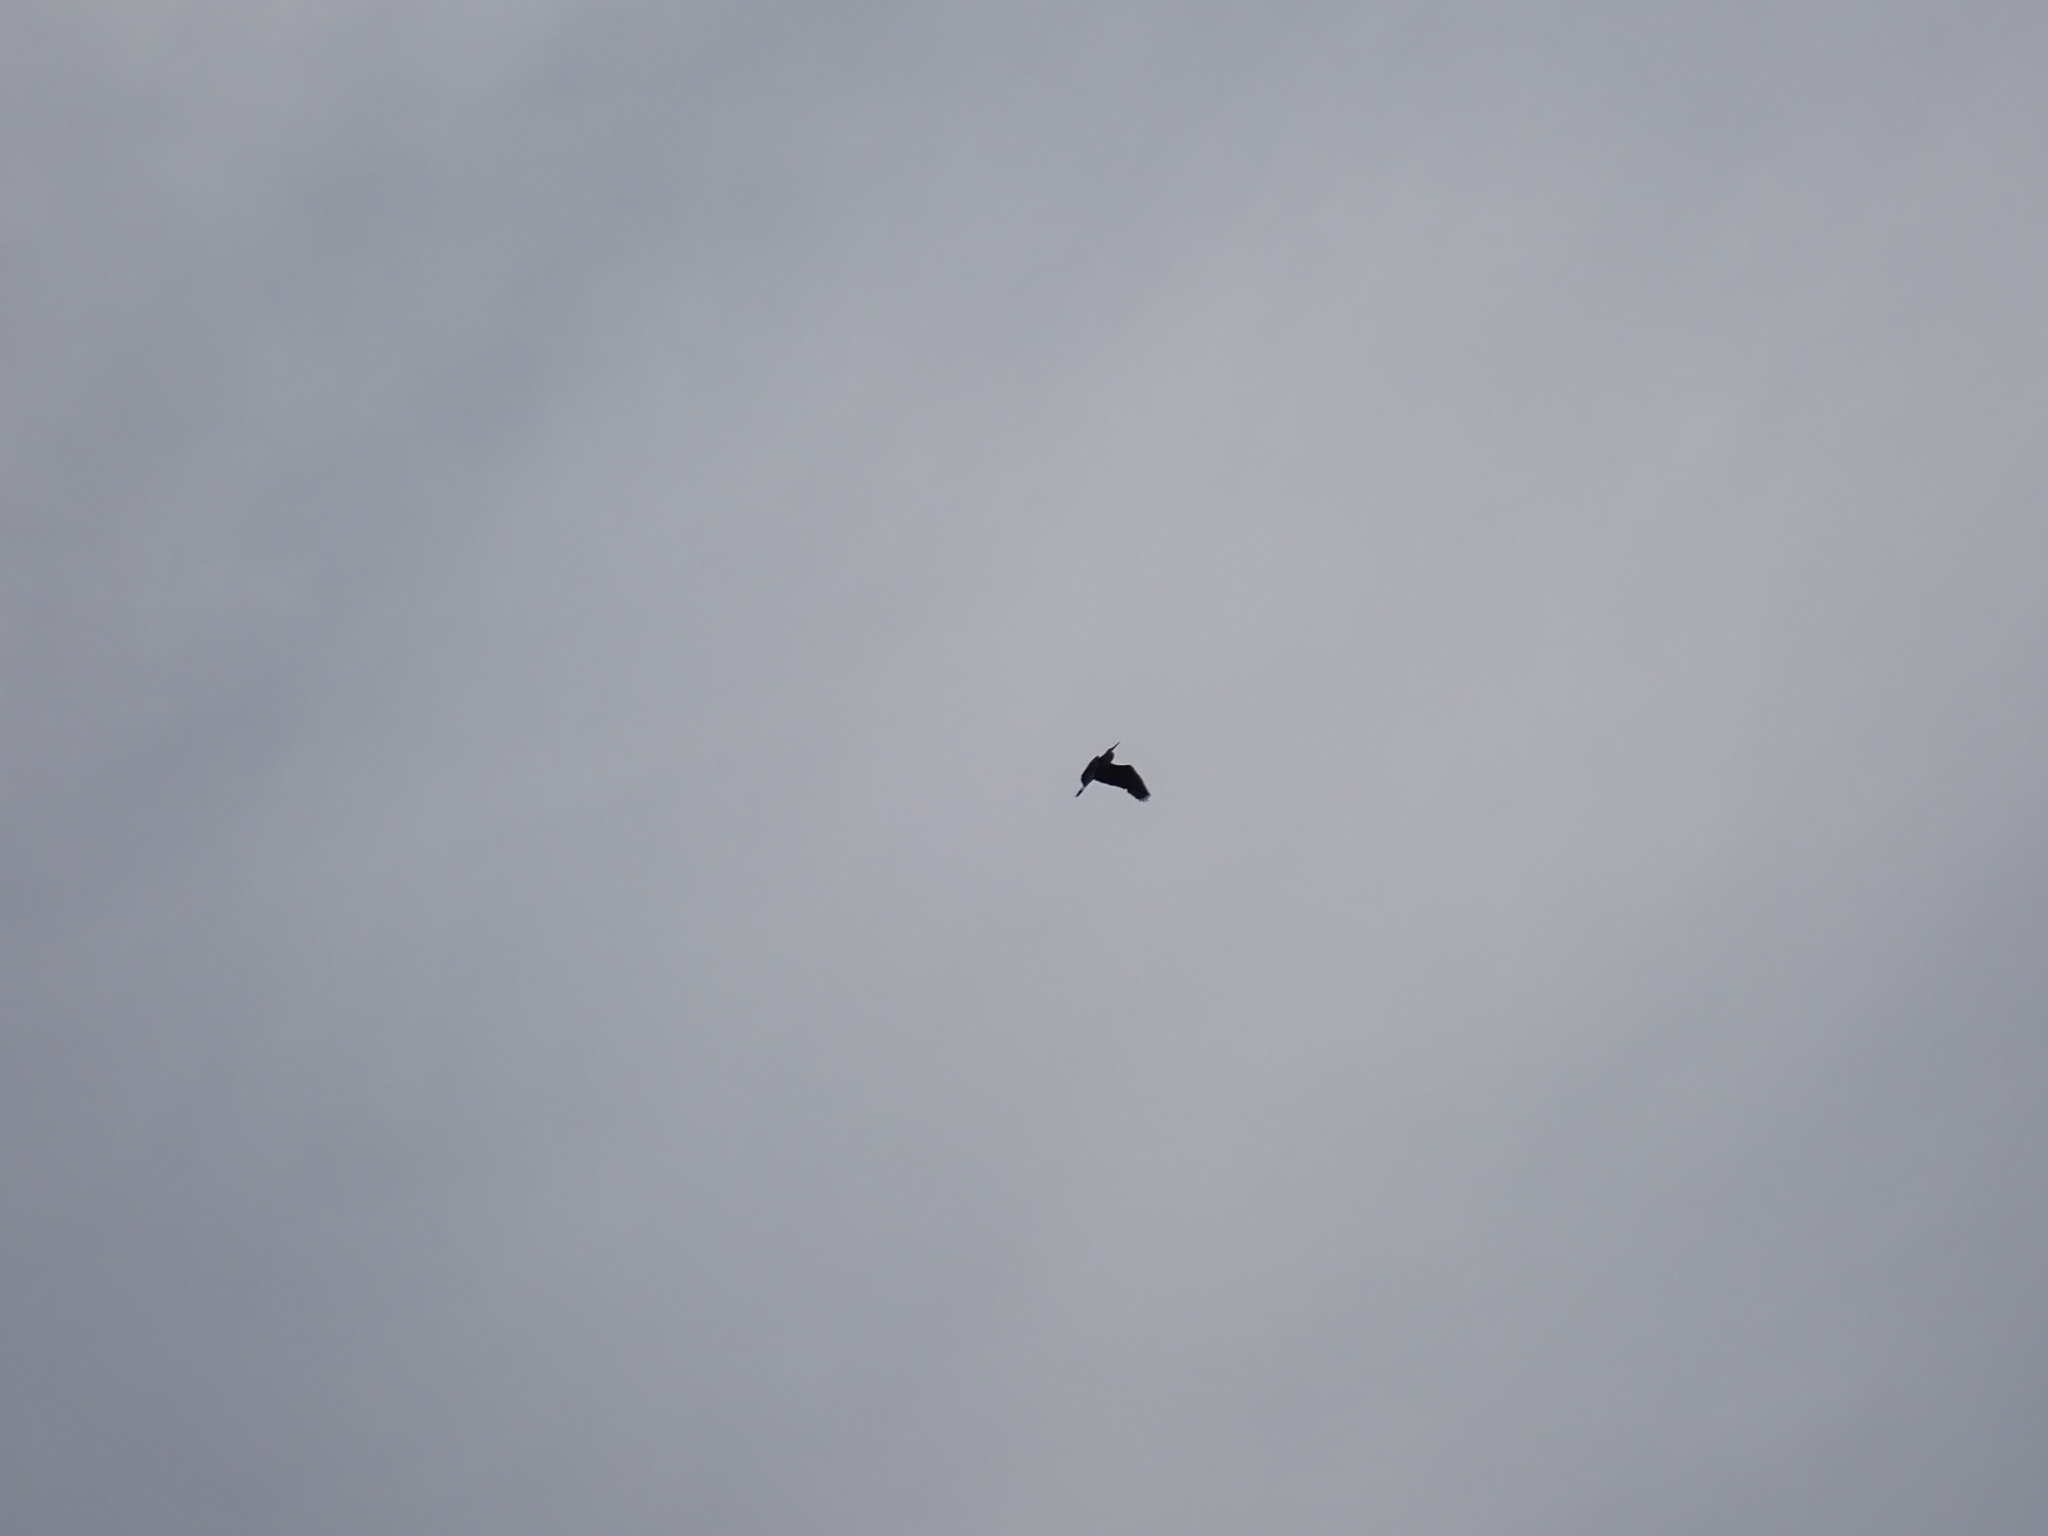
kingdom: Animalia
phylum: Chordata
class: Aves
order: Pelecaniformes
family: Ardeidae
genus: Ardea
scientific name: Ardea herodias
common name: Great blue heron
